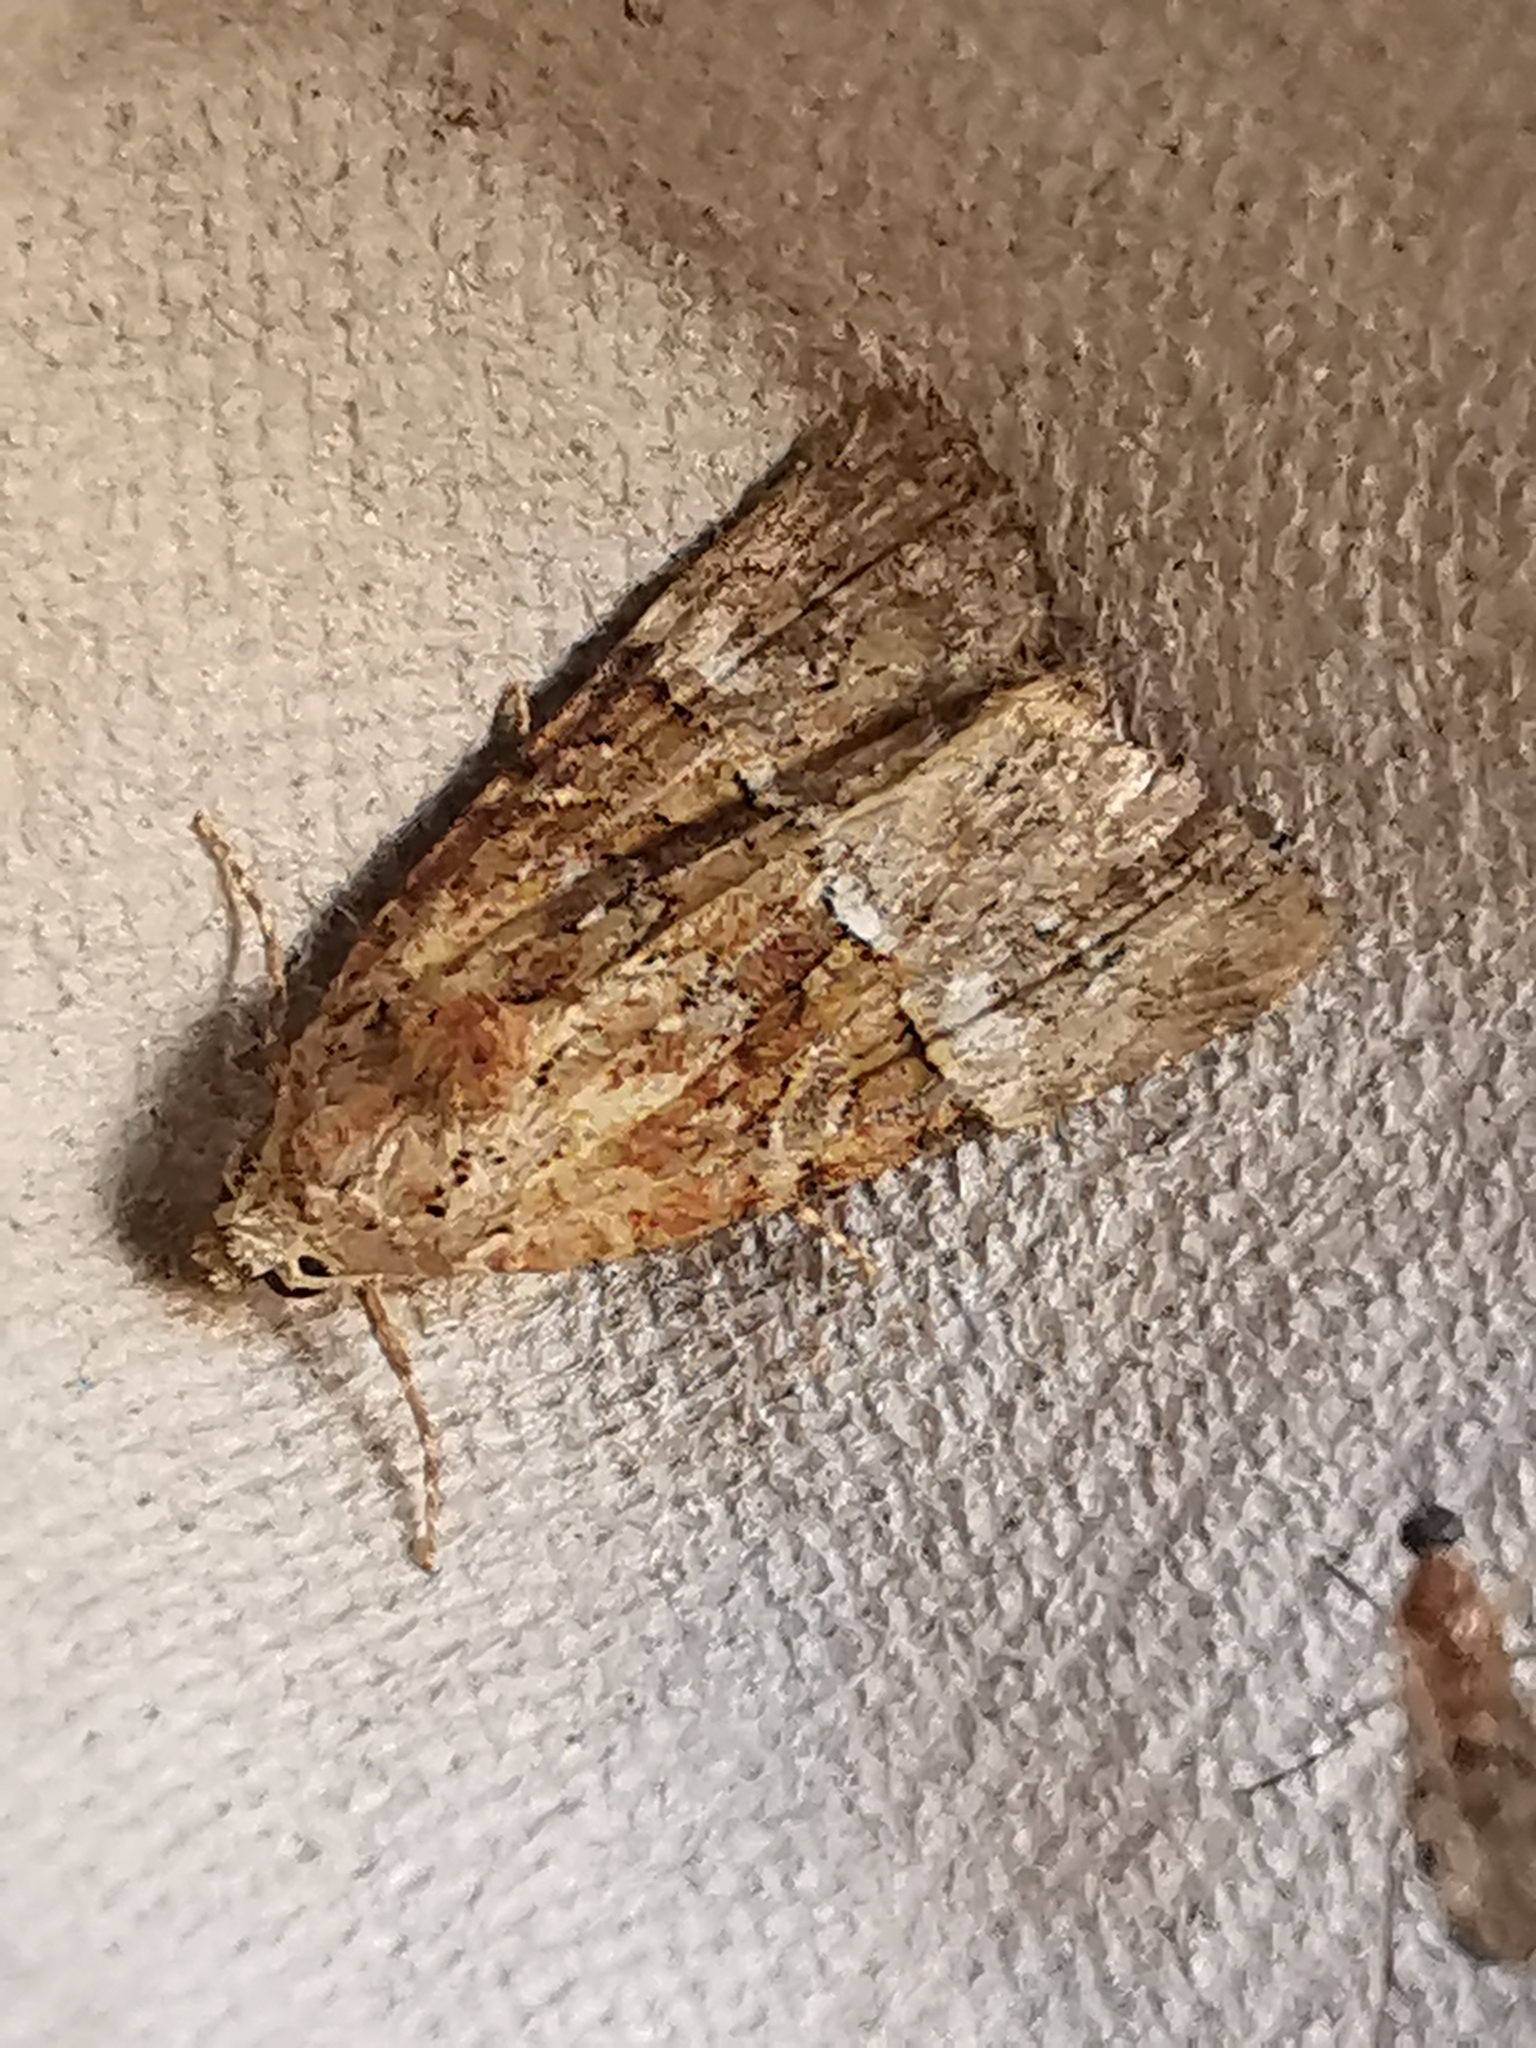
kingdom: Animalia
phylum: Arthropoda
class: Insecta
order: Lepidoptera
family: Noctuidae
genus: Mesoligia
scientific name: Mesoligia furuncula
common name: Cloaked minor
